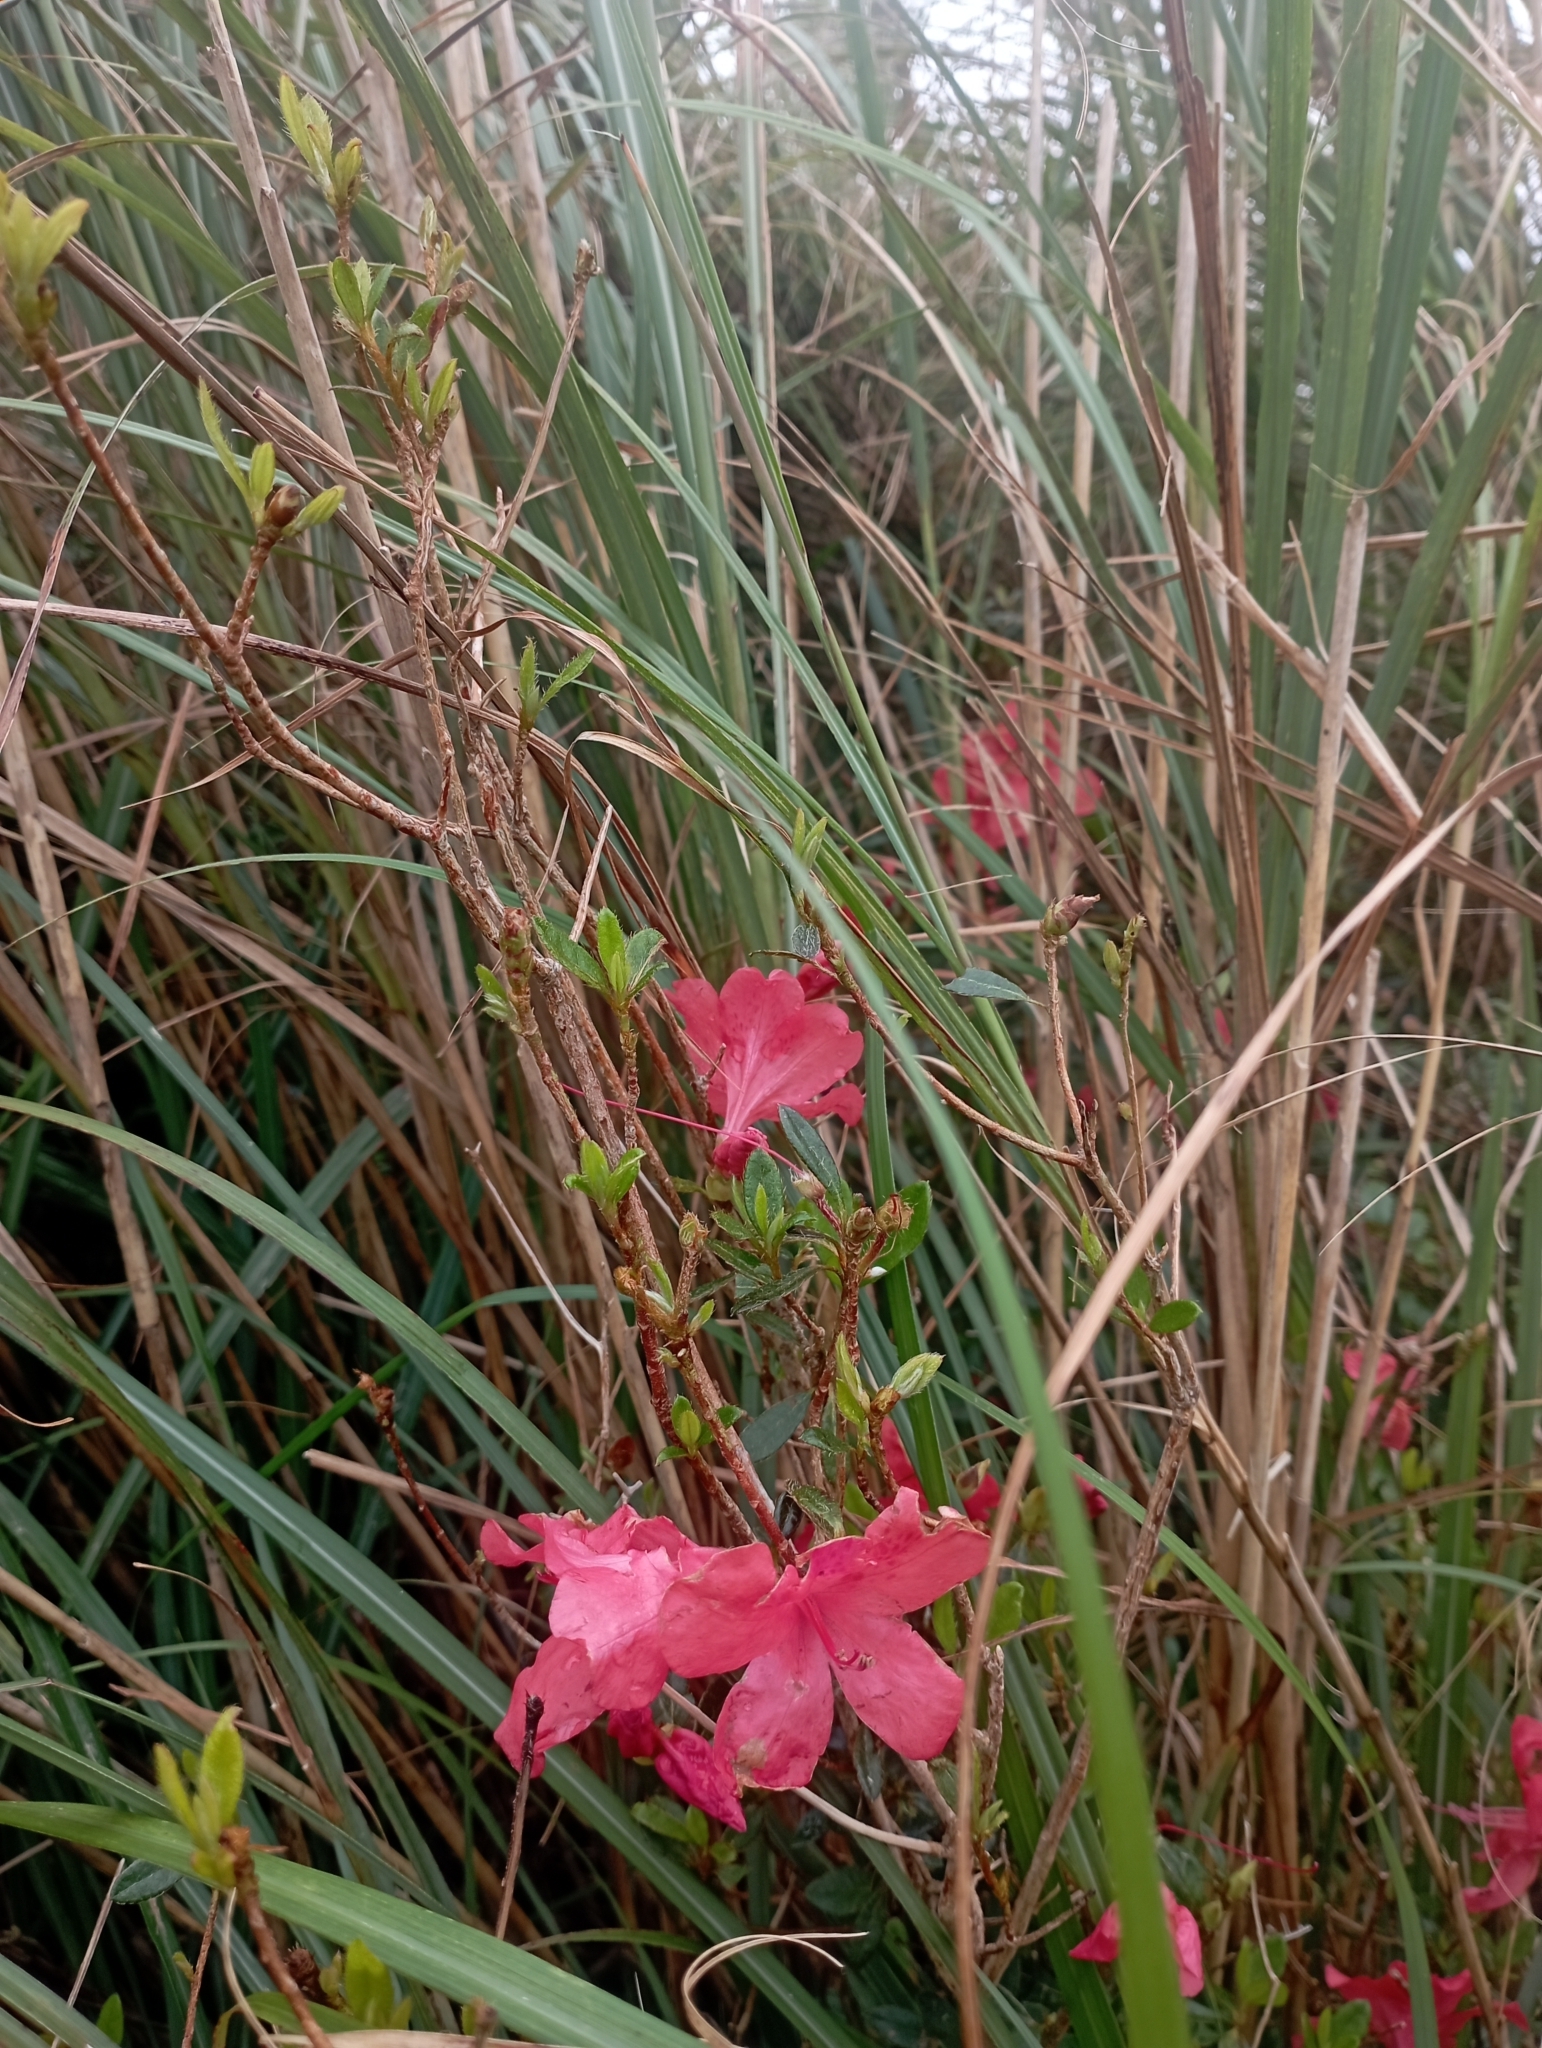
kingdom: Plantae
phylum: Tracheophyta
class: Magnoliopsida
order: Ericales
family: Ericaceae
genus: Rhododendron
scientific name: Rhododendron oldhamii
